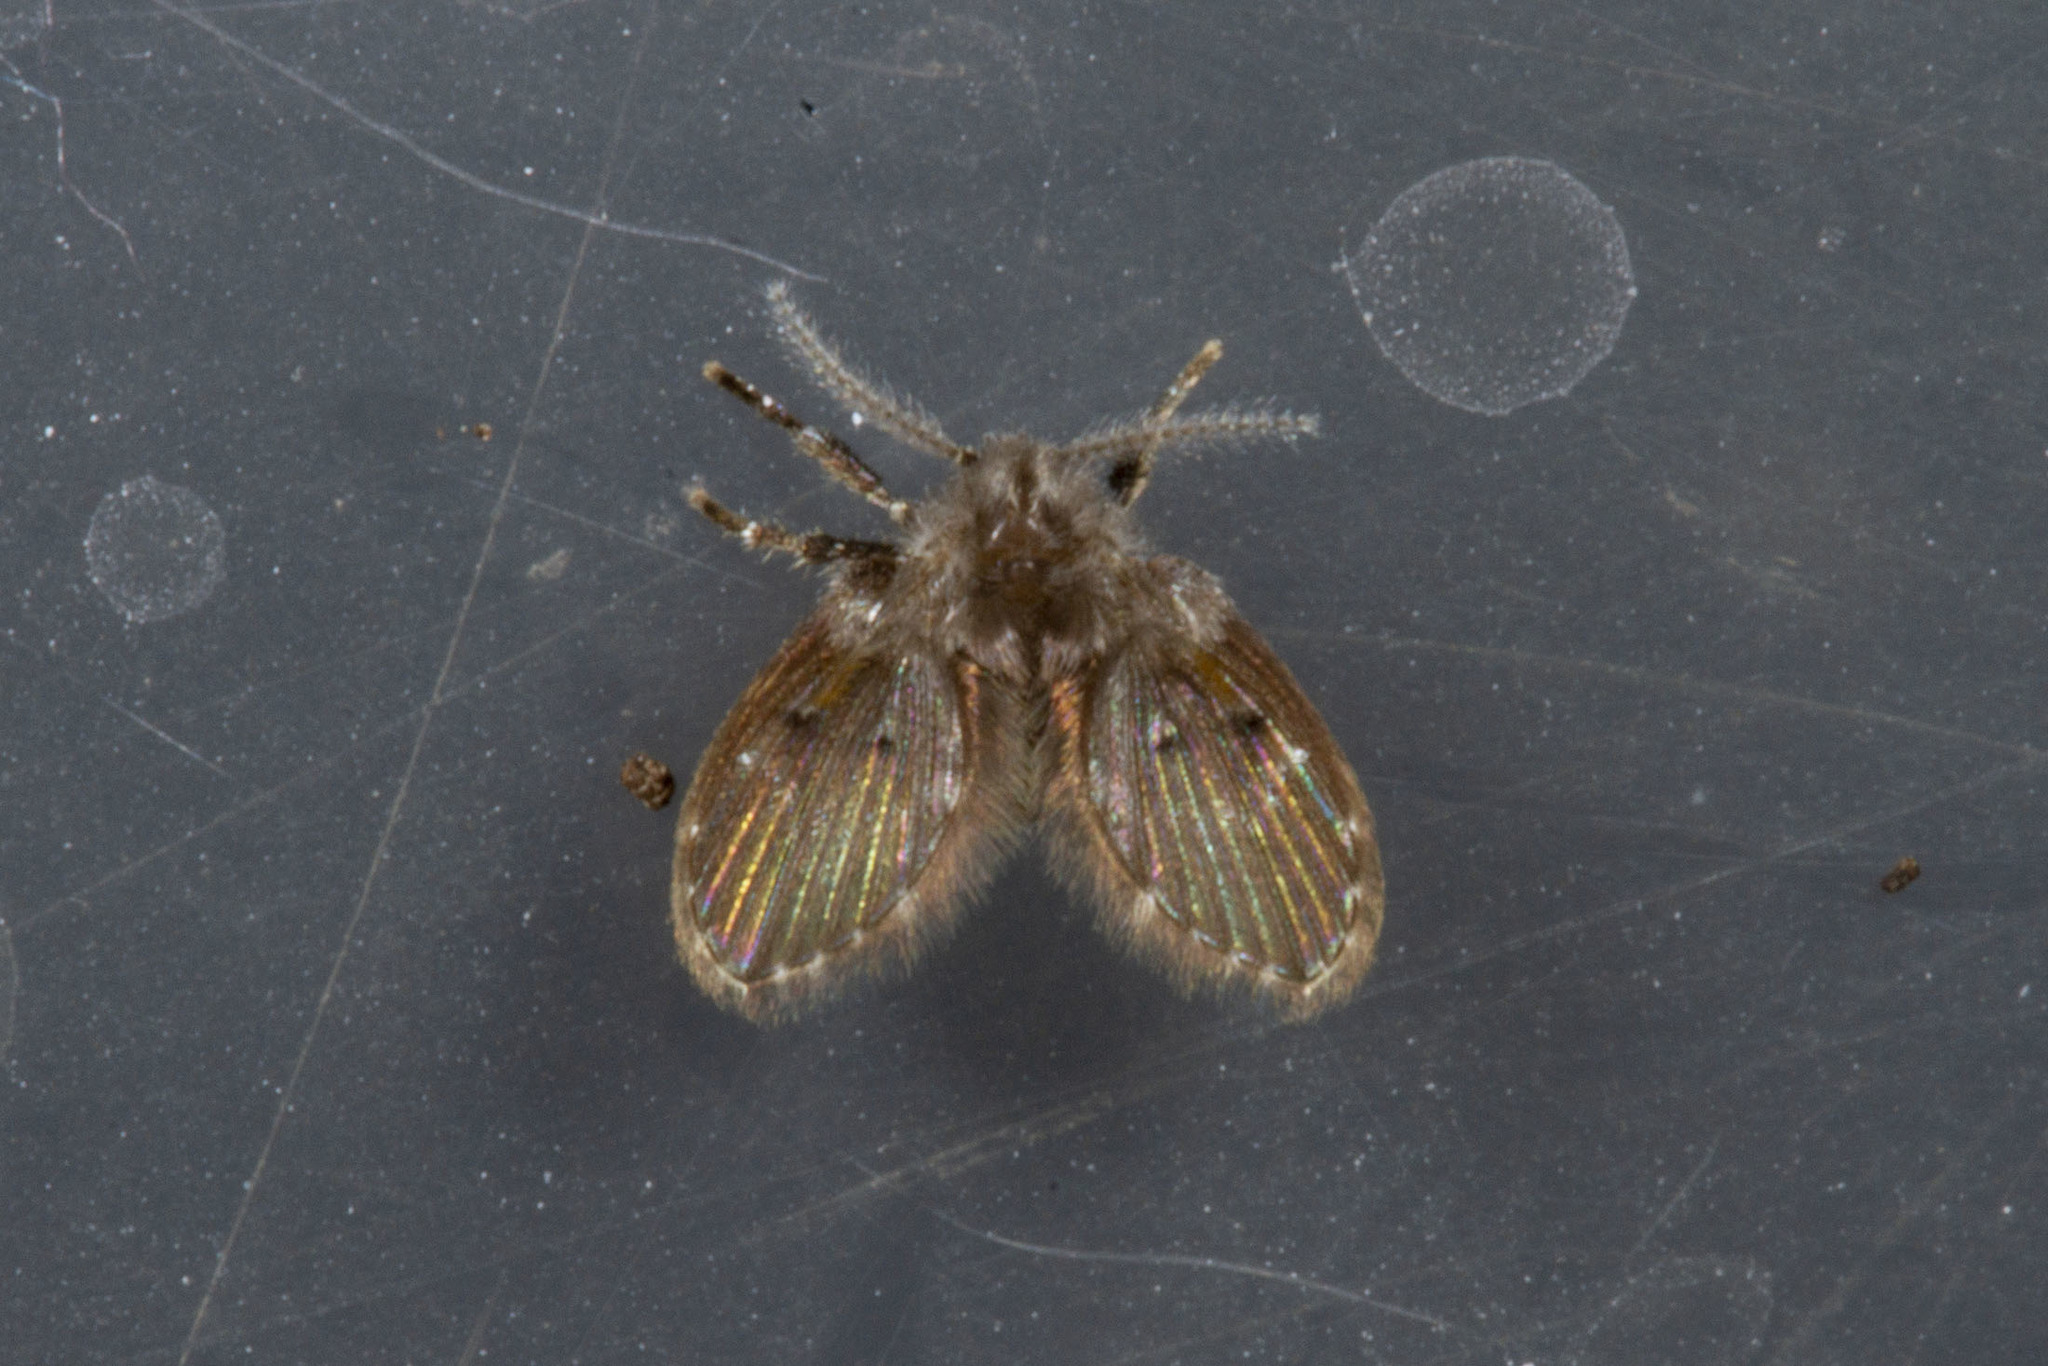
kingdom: Animalia
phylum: Arthropoda
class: Insecta
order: Diptera
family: Psychodidae
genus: Clogmia
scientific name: Clogmia albipunctatus
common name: White-spotted moth fly
